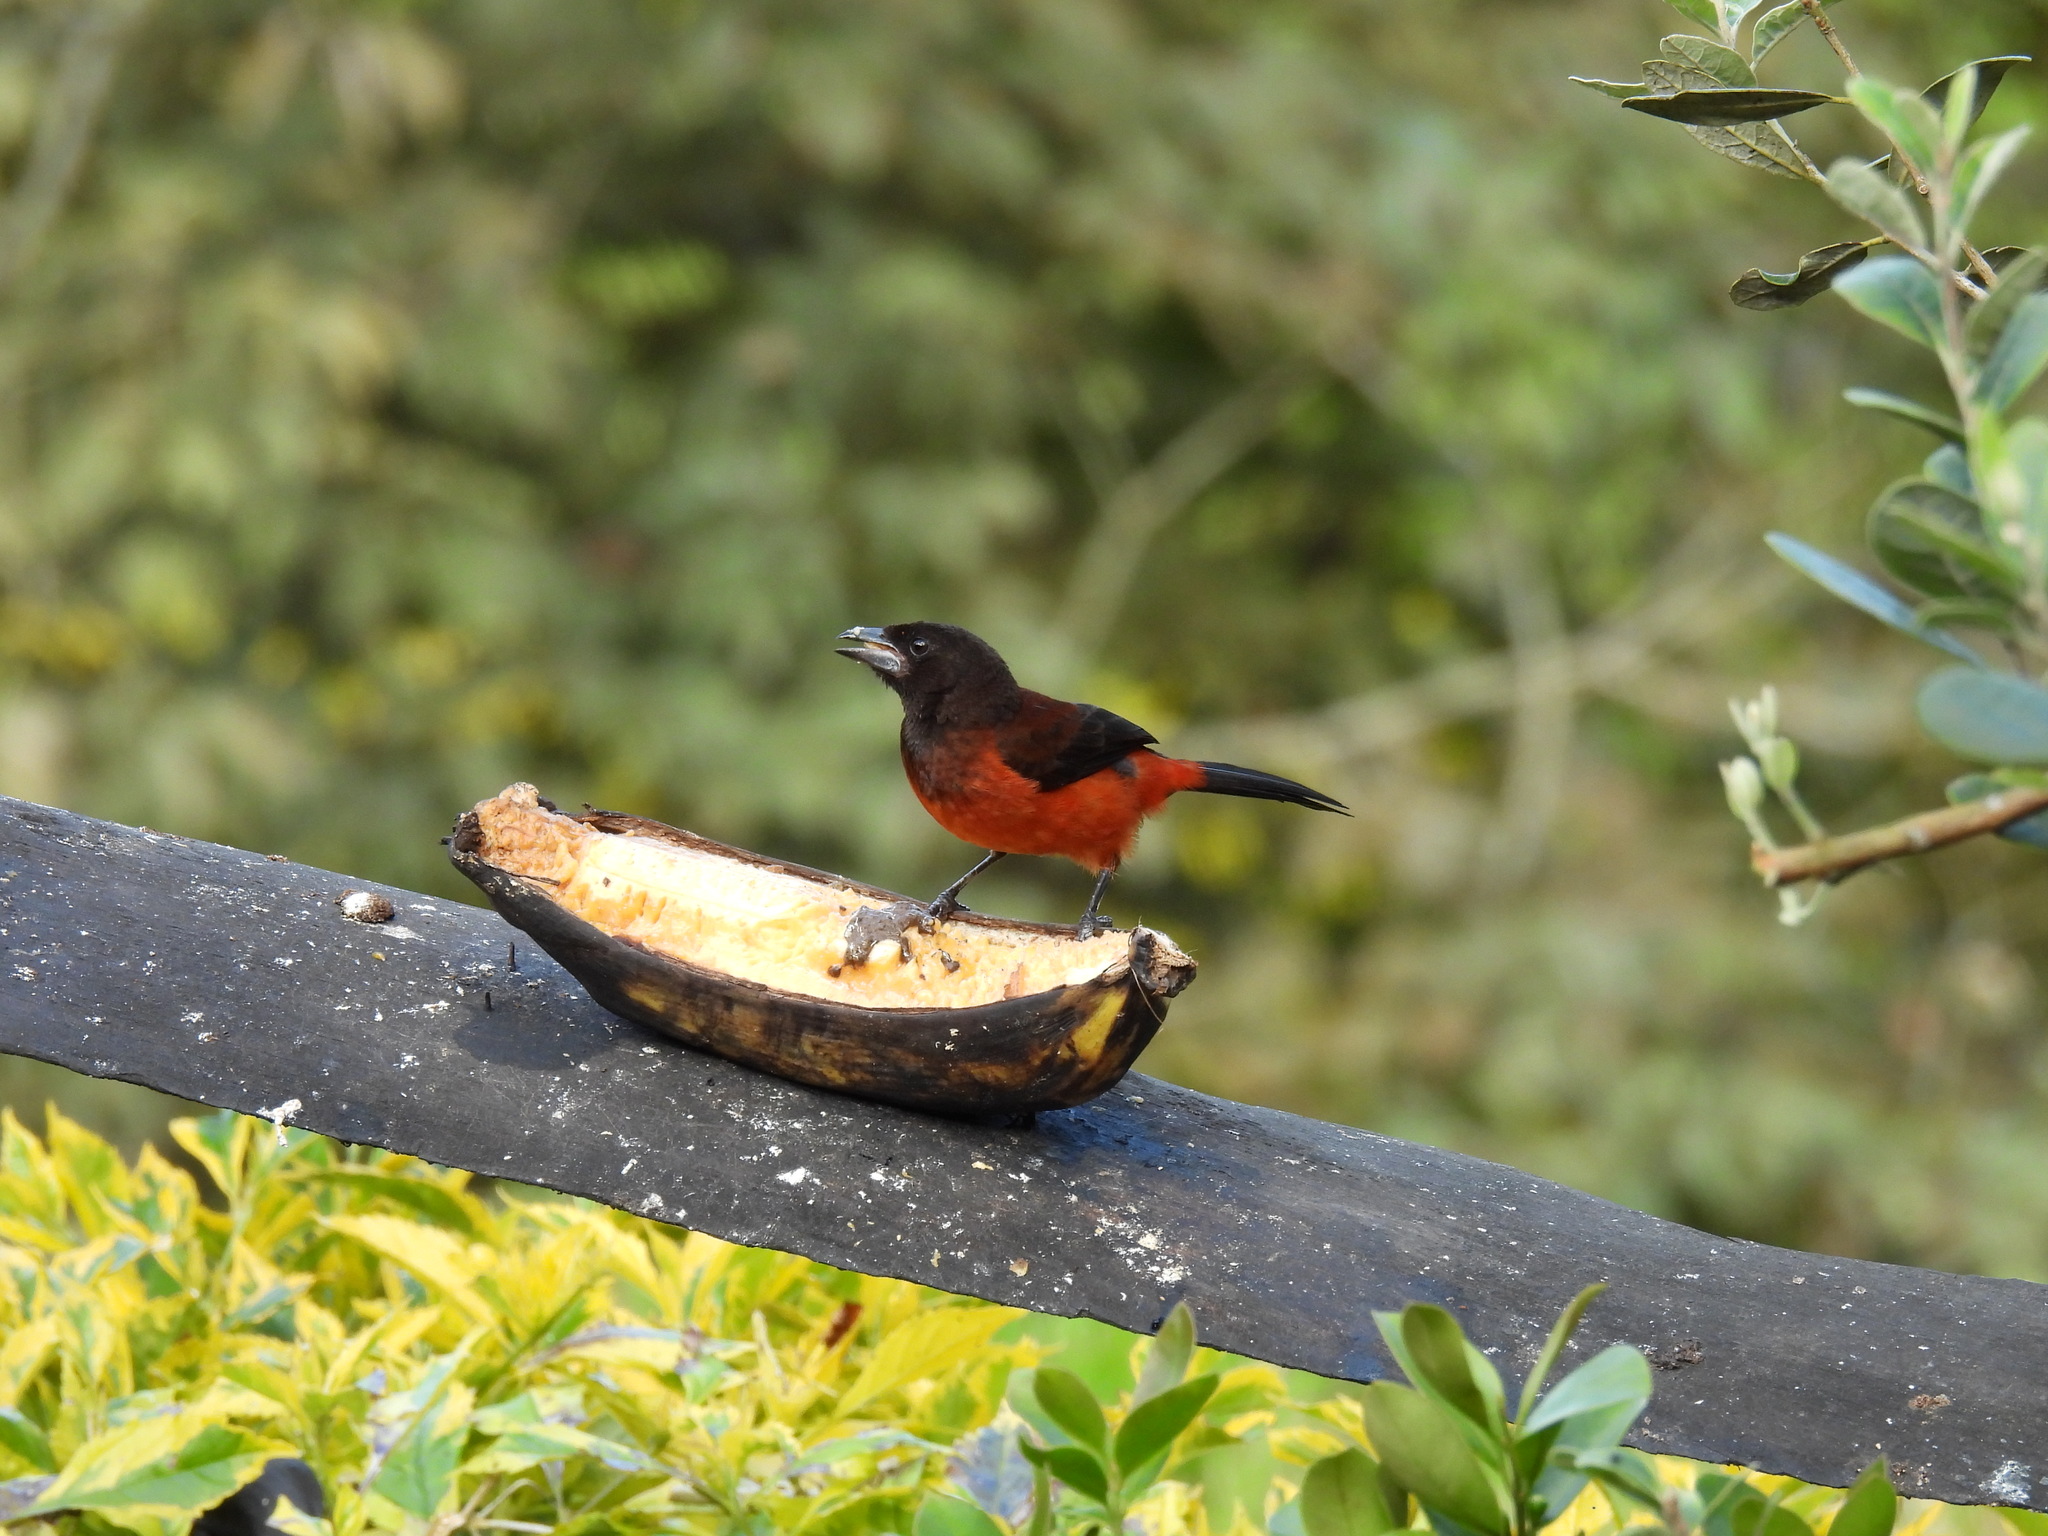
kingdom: Animalia
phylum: Chordata
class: Aves
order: Passeriformes
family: Thraupidae
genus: Ramphocelus
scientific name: Ramphocelus dimidiatus
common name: Crimson-backed tanager
